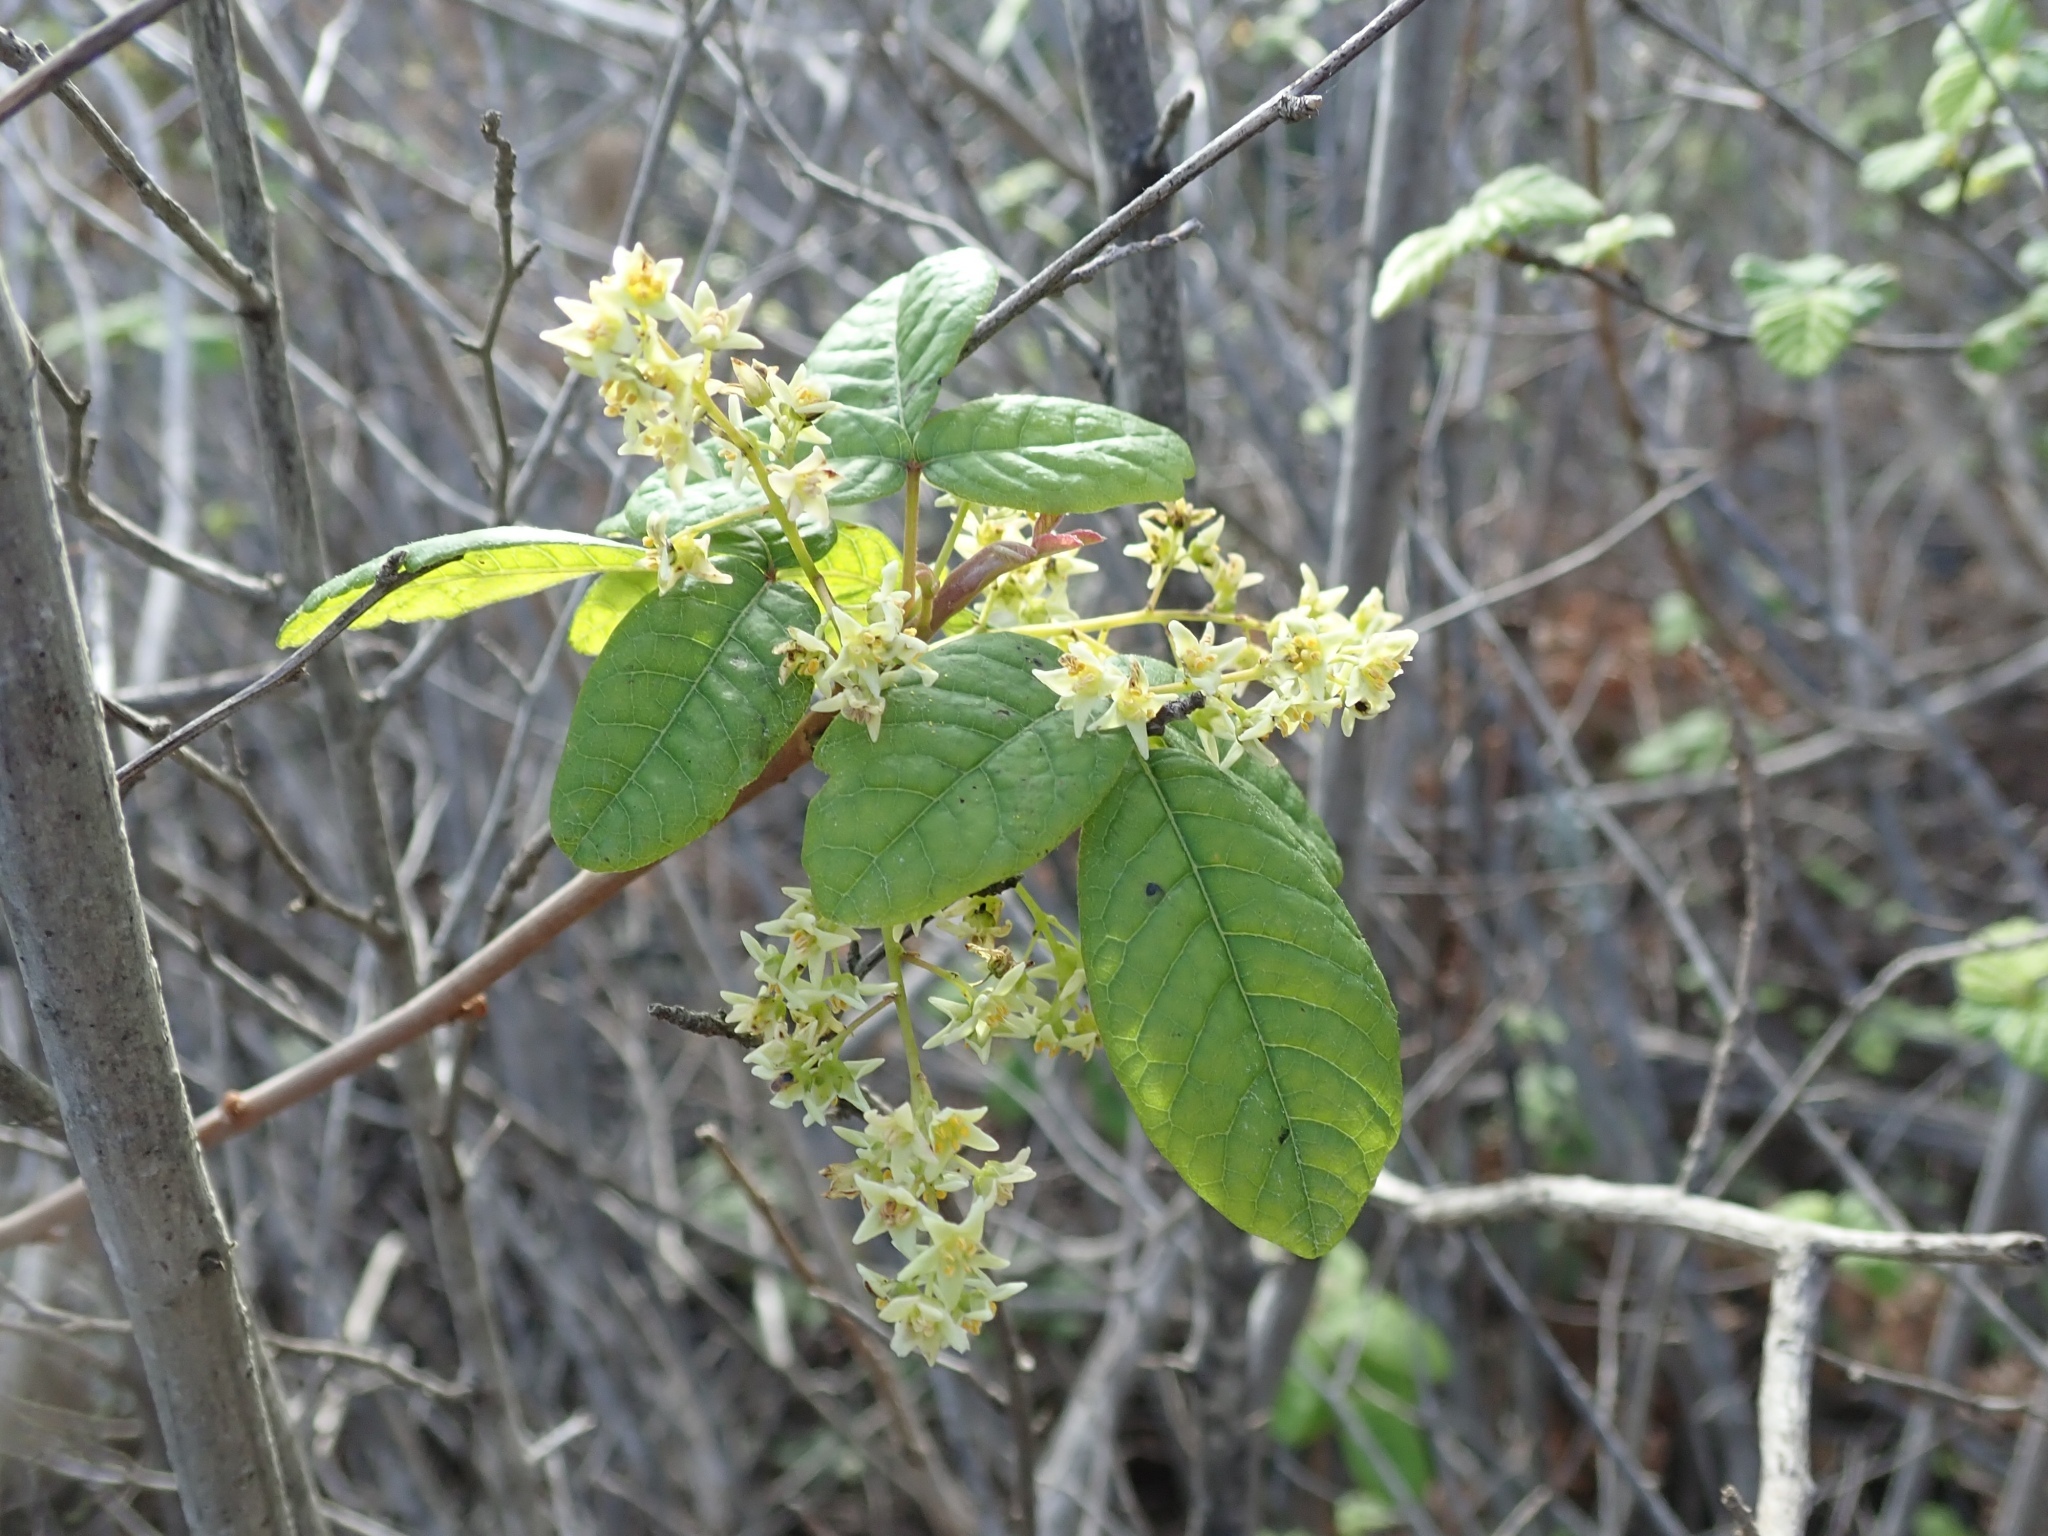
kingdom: Plantae
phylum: Tracheophyta
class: Magnoliopsida
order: Sapindales
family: Anacardiaceae
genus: Toxicodendron
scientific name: Toxicodendron diversilobum
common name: Pacific poison-oak
